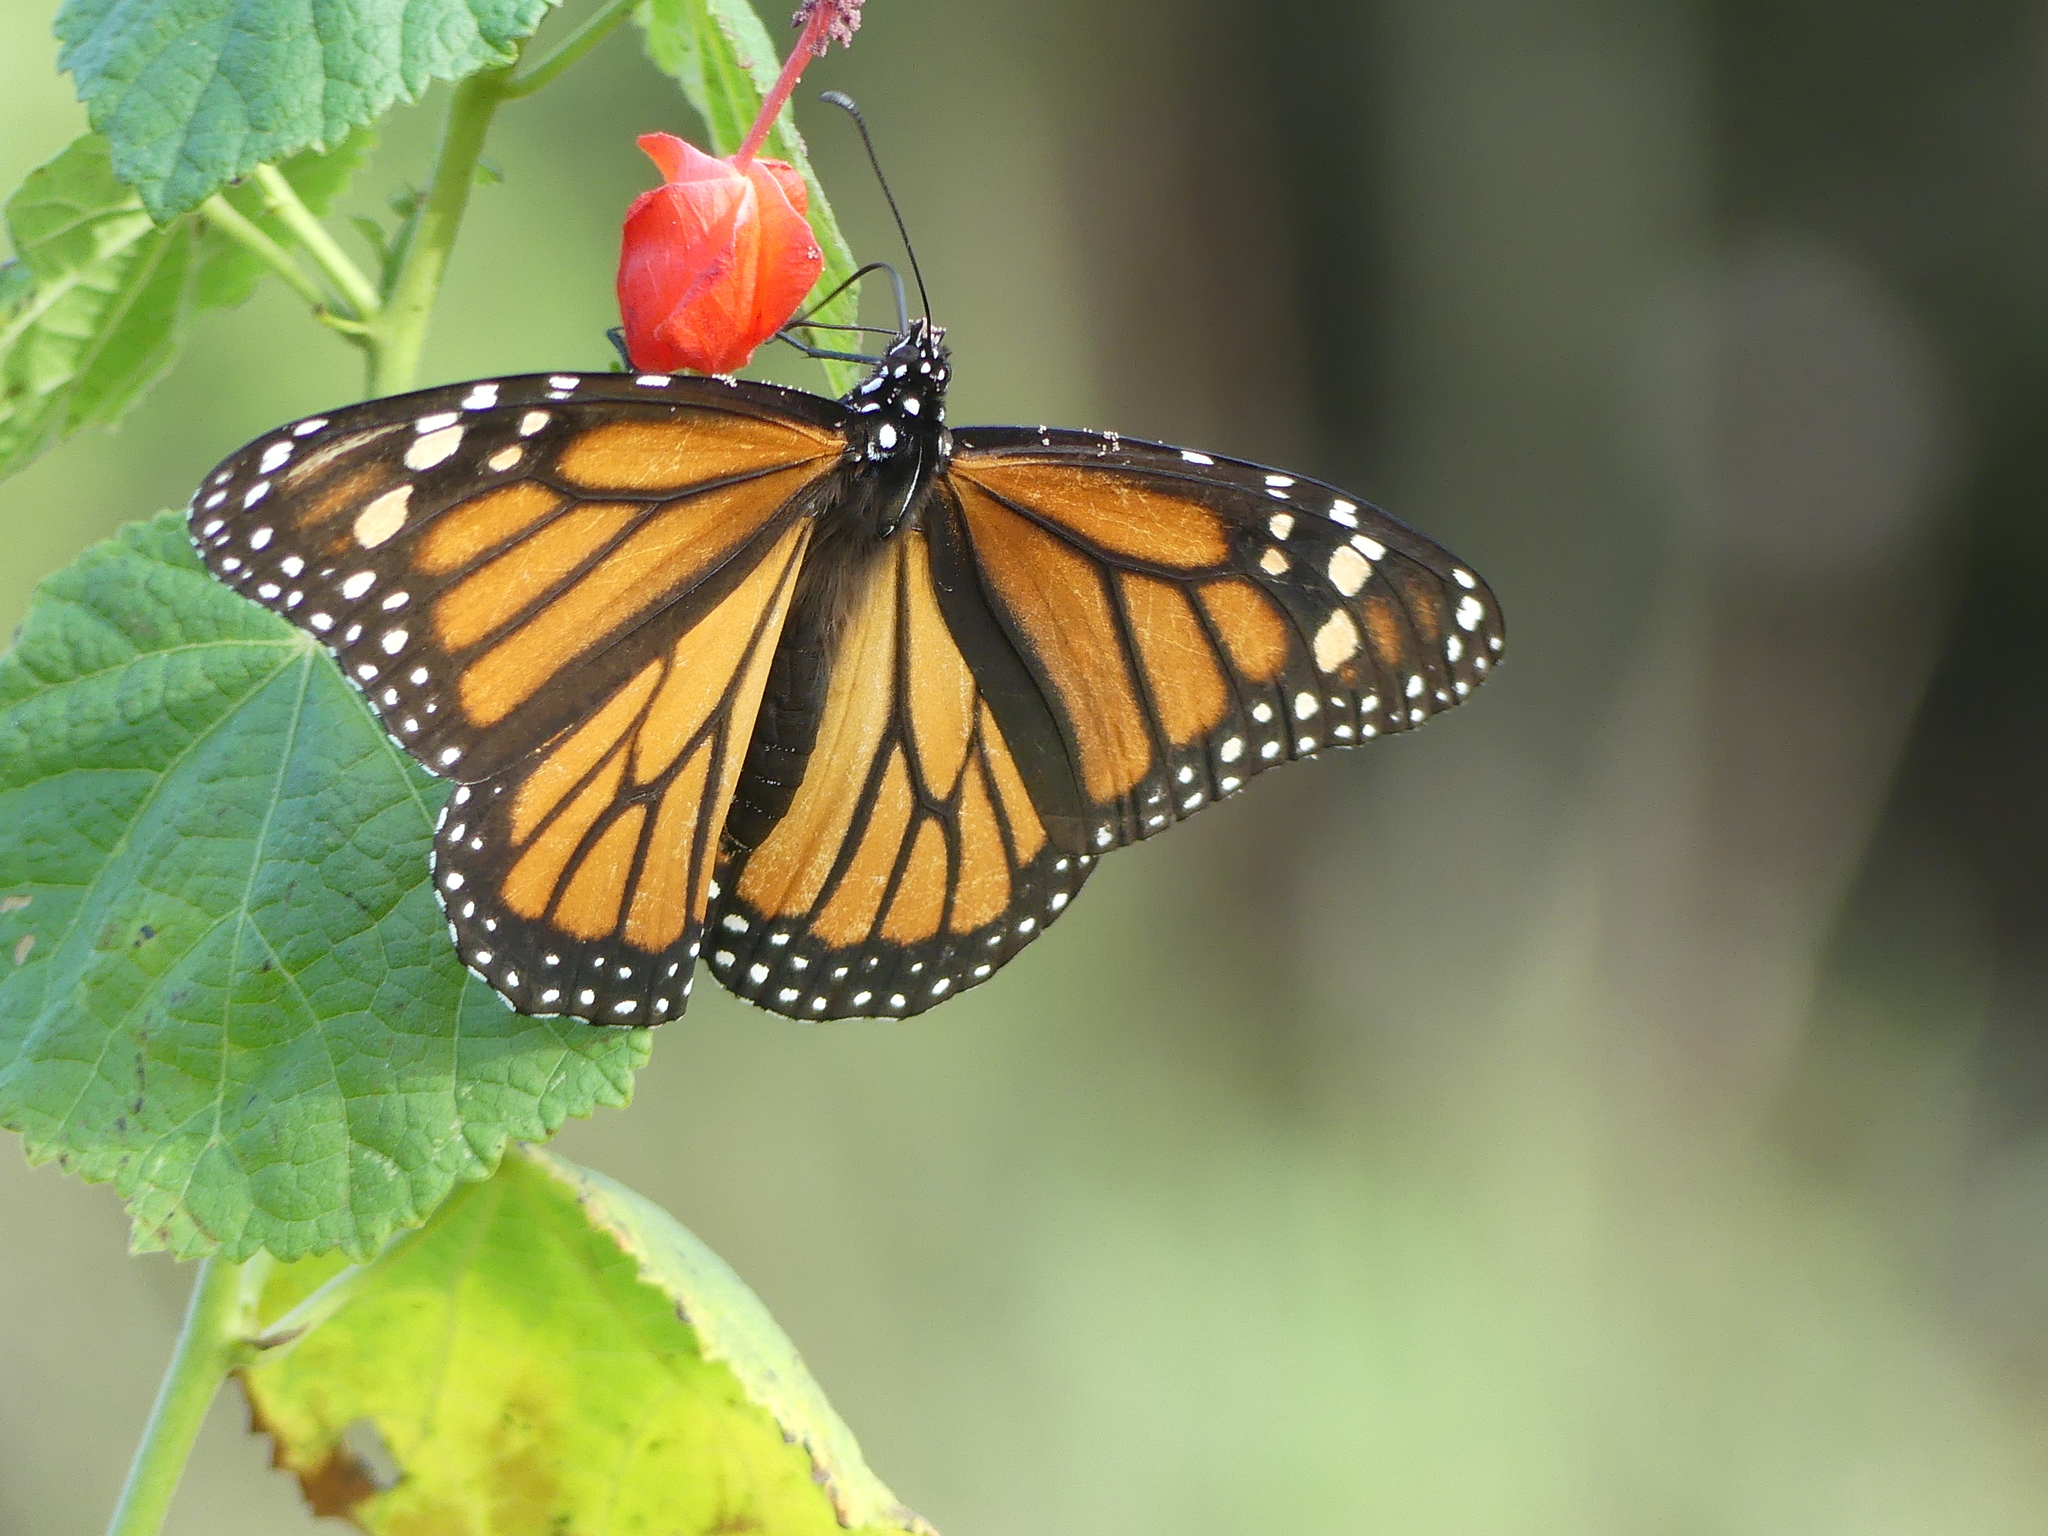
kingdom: Animalia
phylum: Arthropoda
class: Insecta
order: Lepidoptera
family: Nymphalidae
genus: Danaus
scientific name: Danaus plexippus
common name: Monarch
